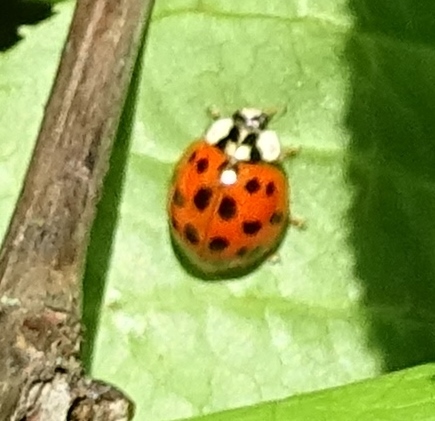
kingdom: Animalia
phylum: Arthropoda
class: Insecta
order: Coleoptera
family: Coccinellidae
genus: Harmonia
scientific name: Harmonia axyridis
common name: Harlequin ladybird
